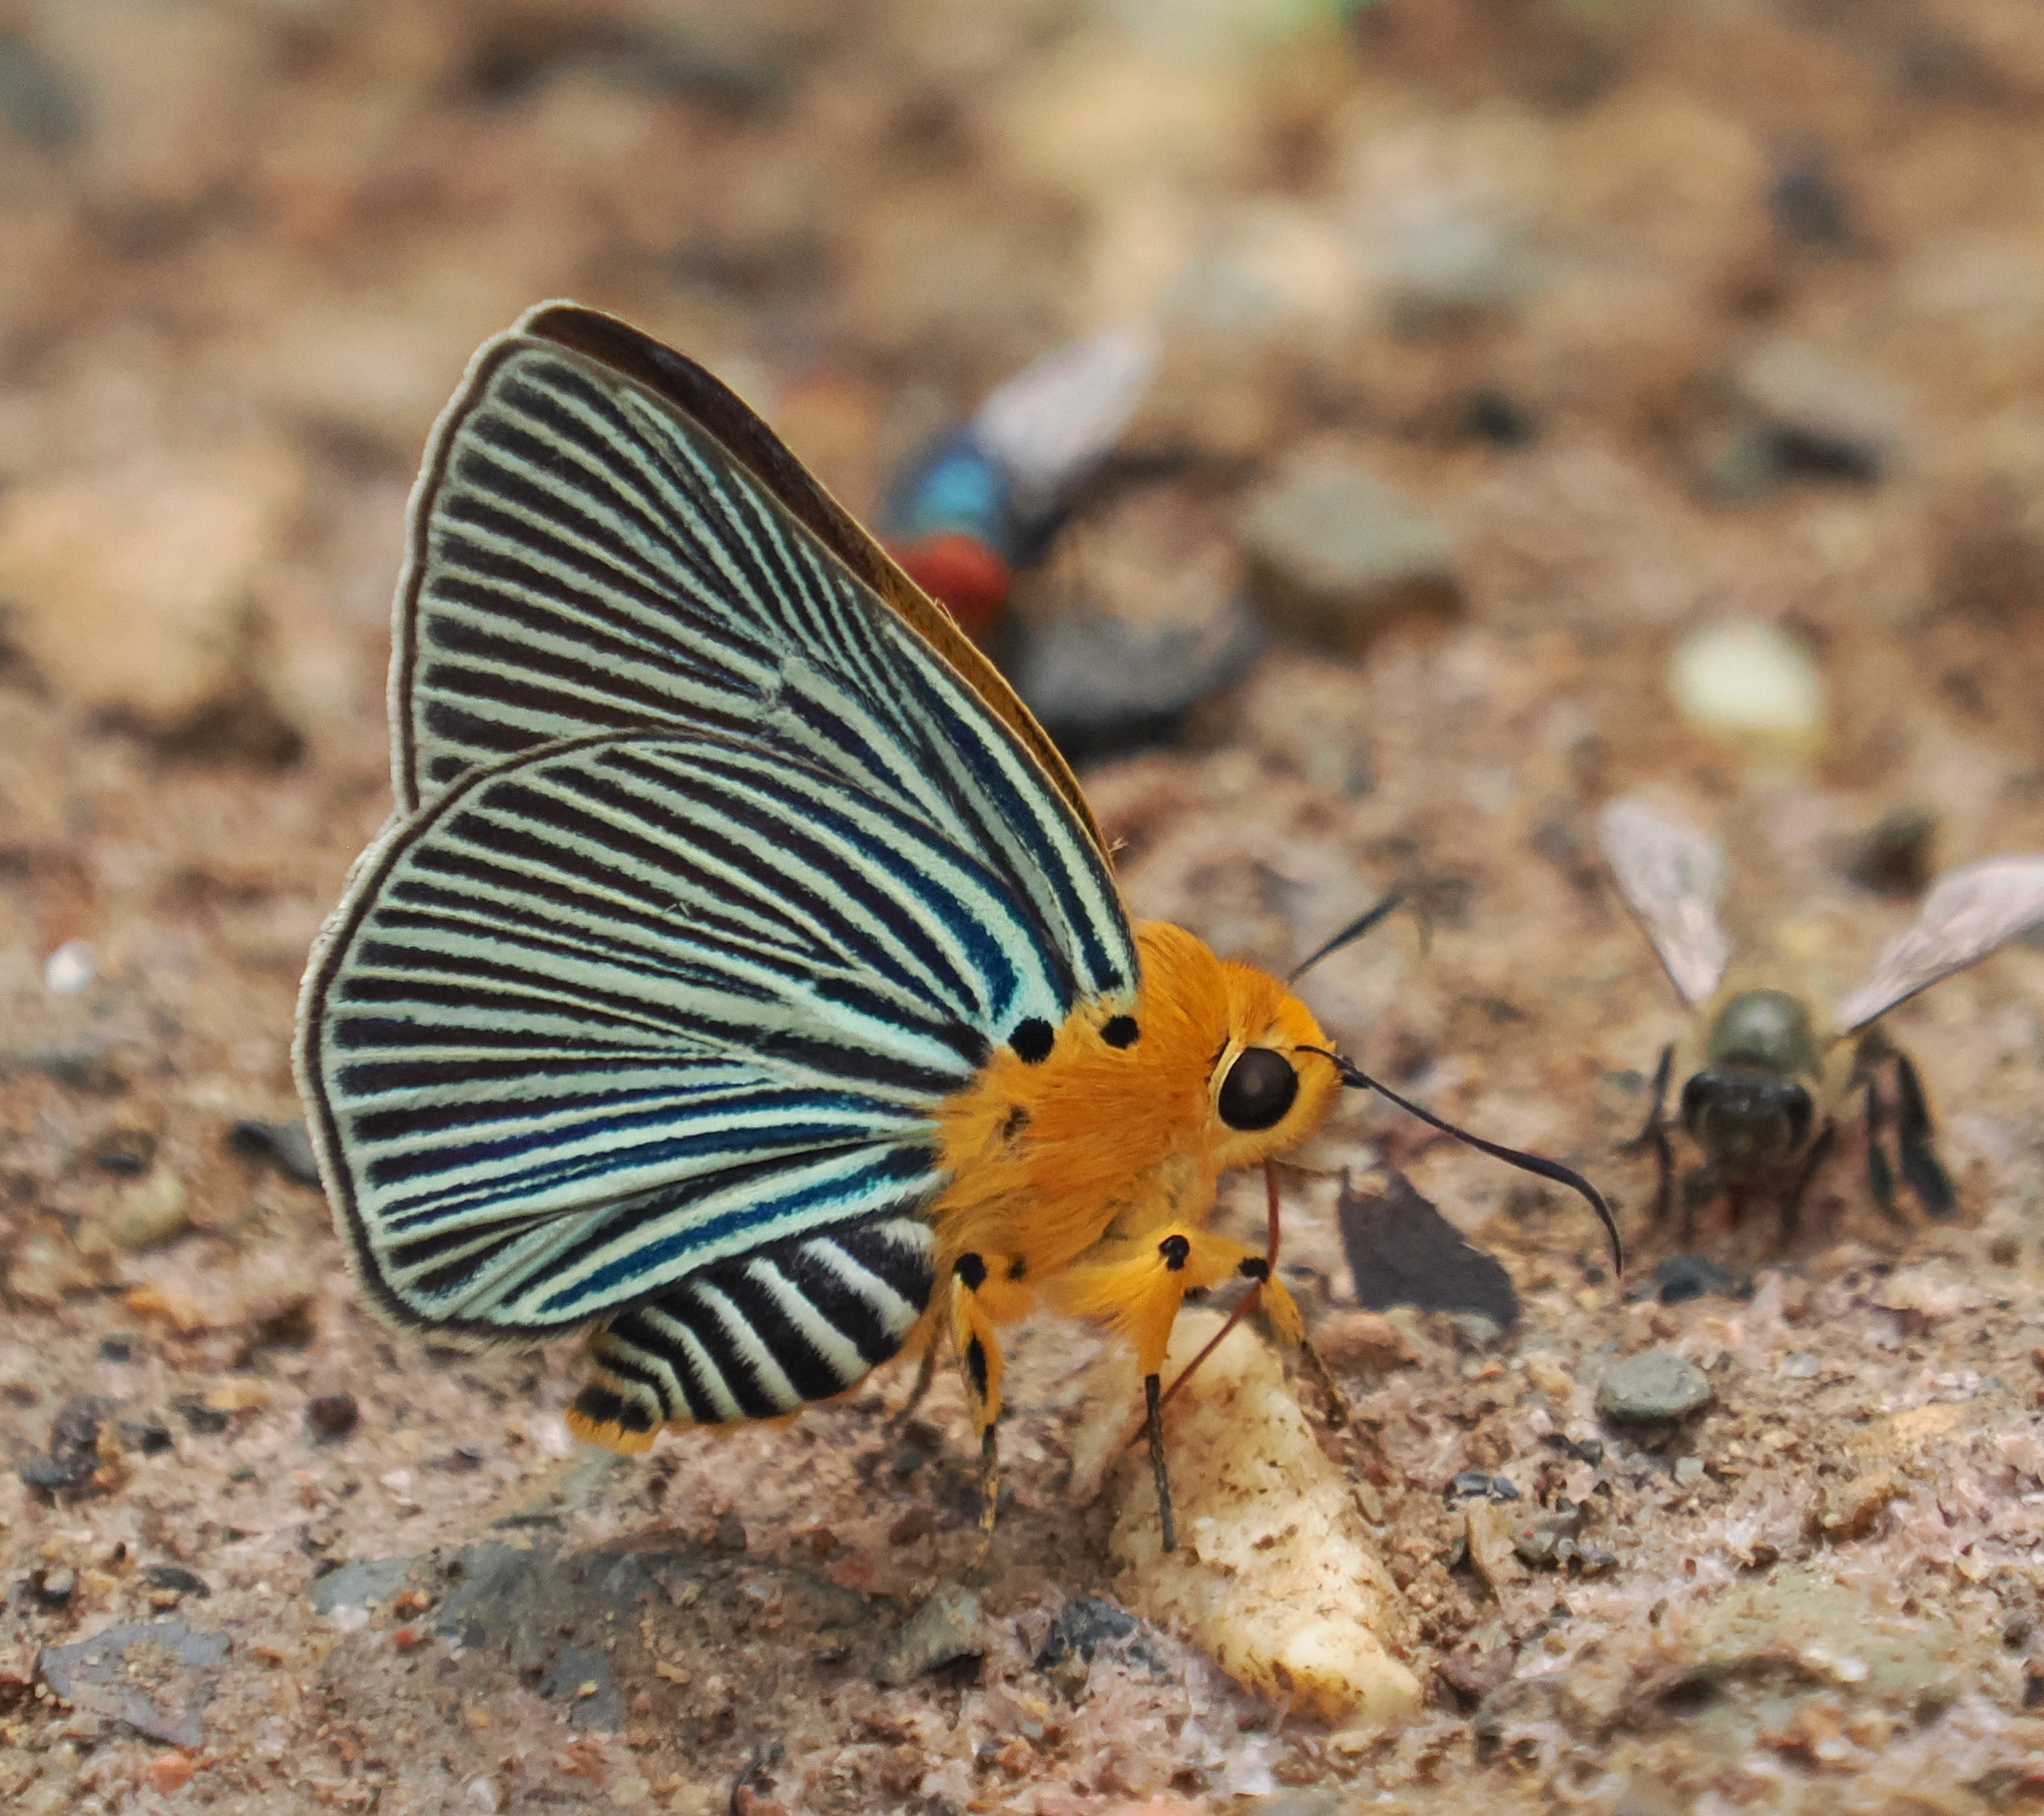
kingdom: Animalia
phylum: Arthropoda
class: Insecta
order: Lepidoptera
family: Hesperiidae
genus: Bibasis
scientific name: Bibasis amara
